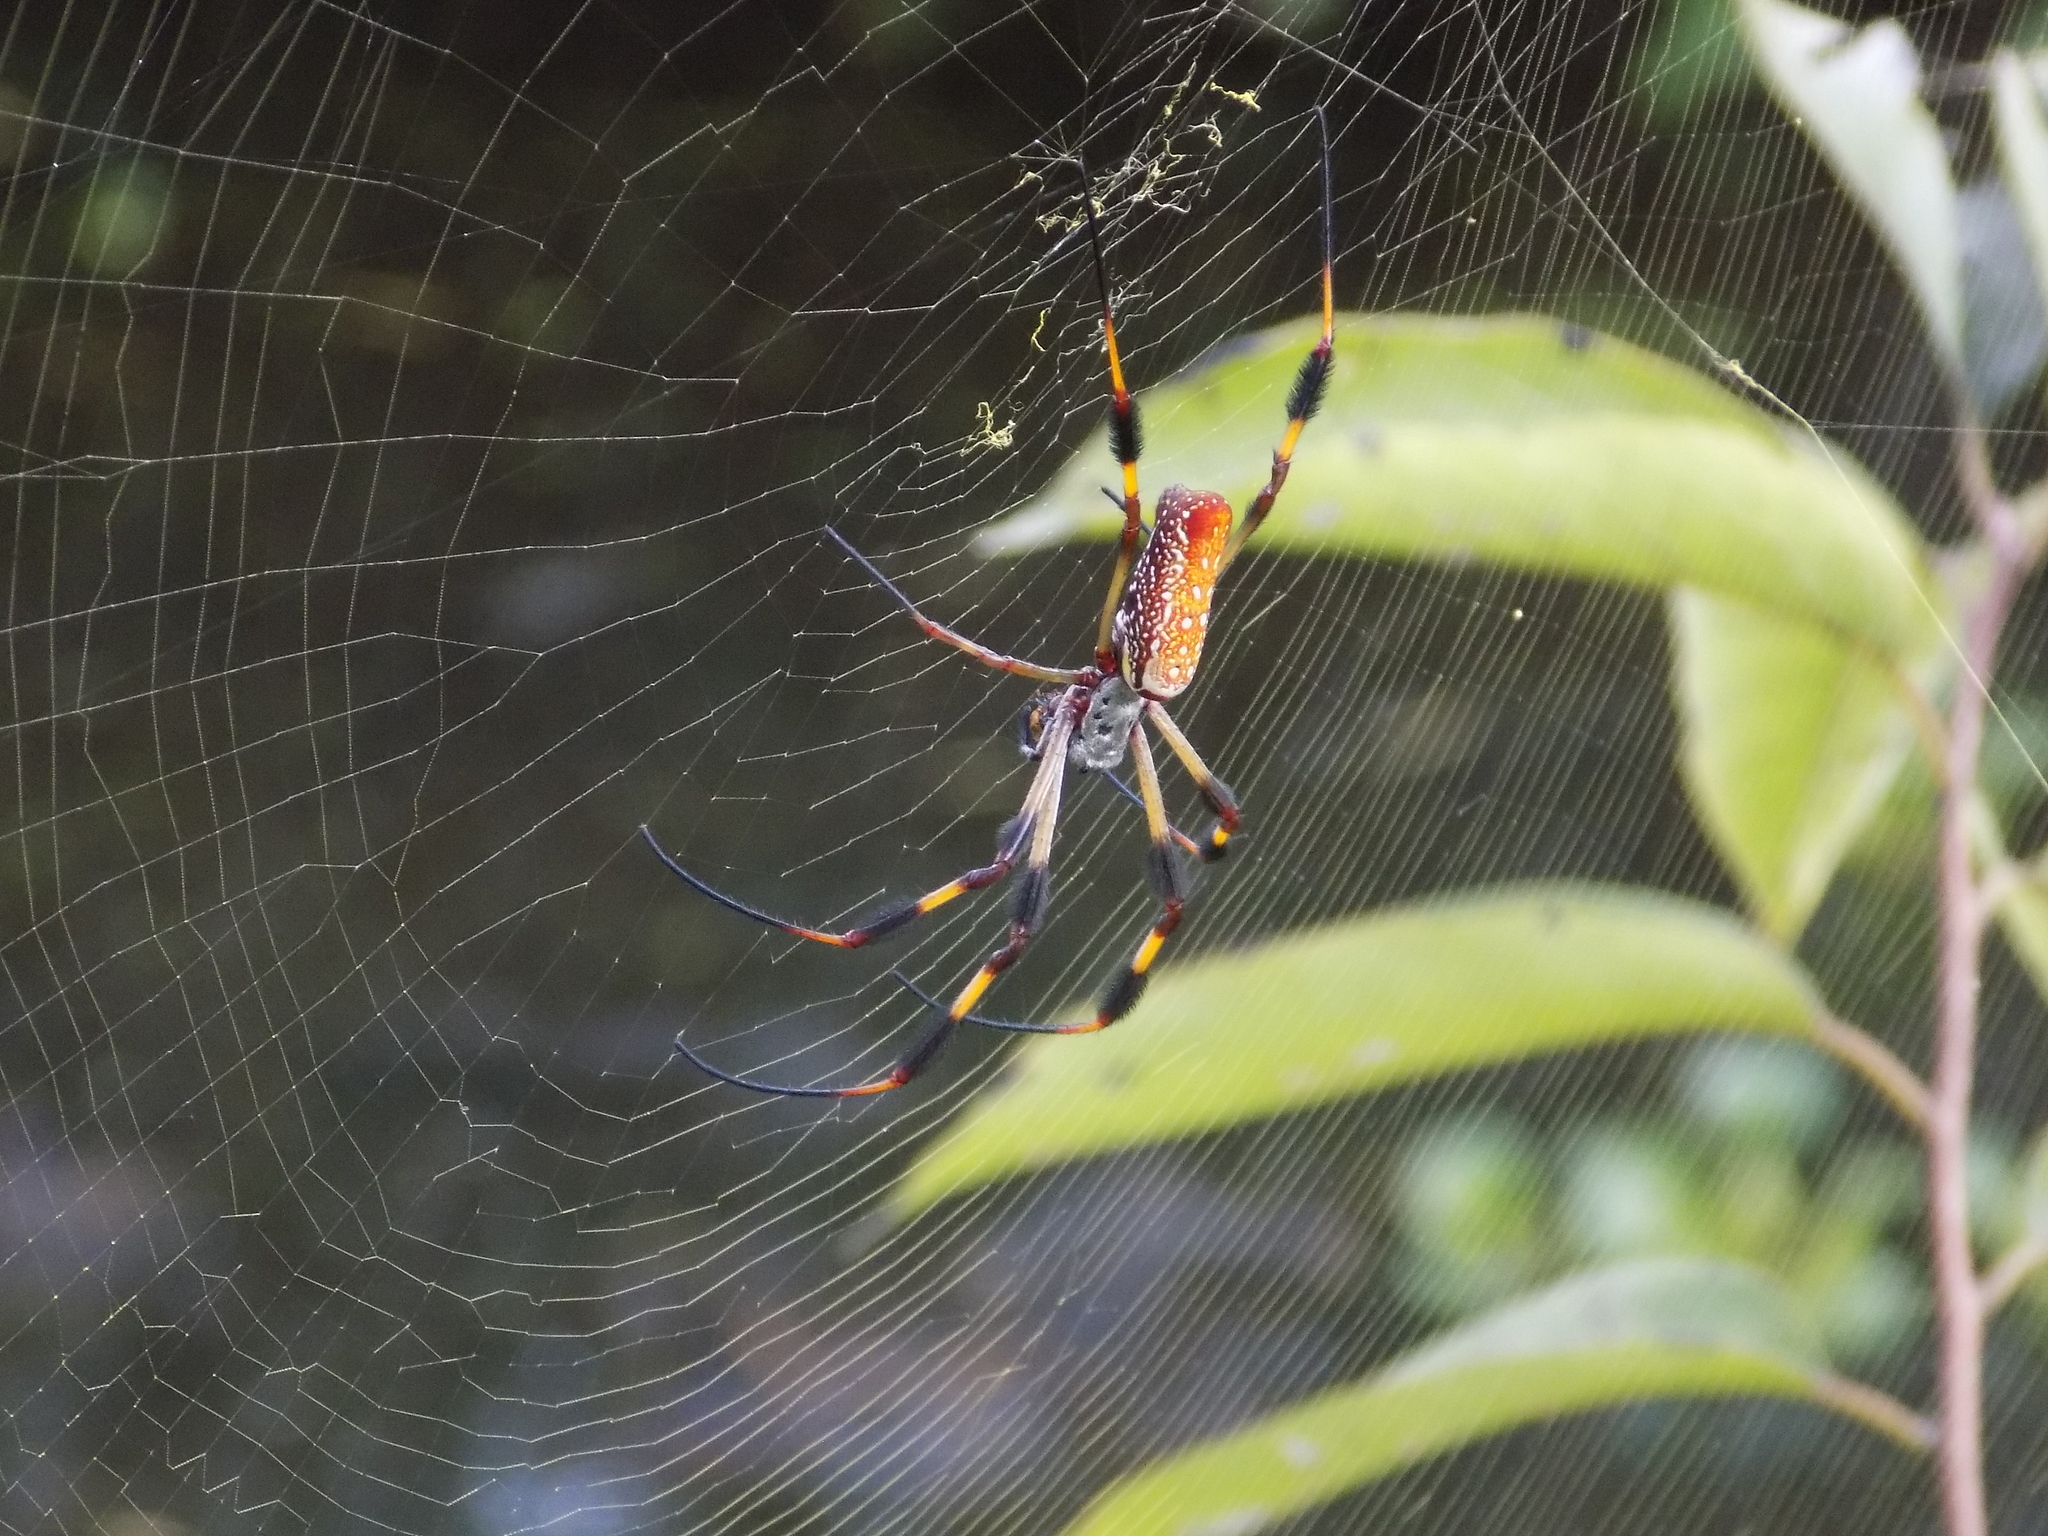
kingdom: Animalia
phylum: Arthropoda
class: Arachnida
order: Araneae
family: Araneidae
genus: Trichonephila
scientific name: Trichonephila clavipes
